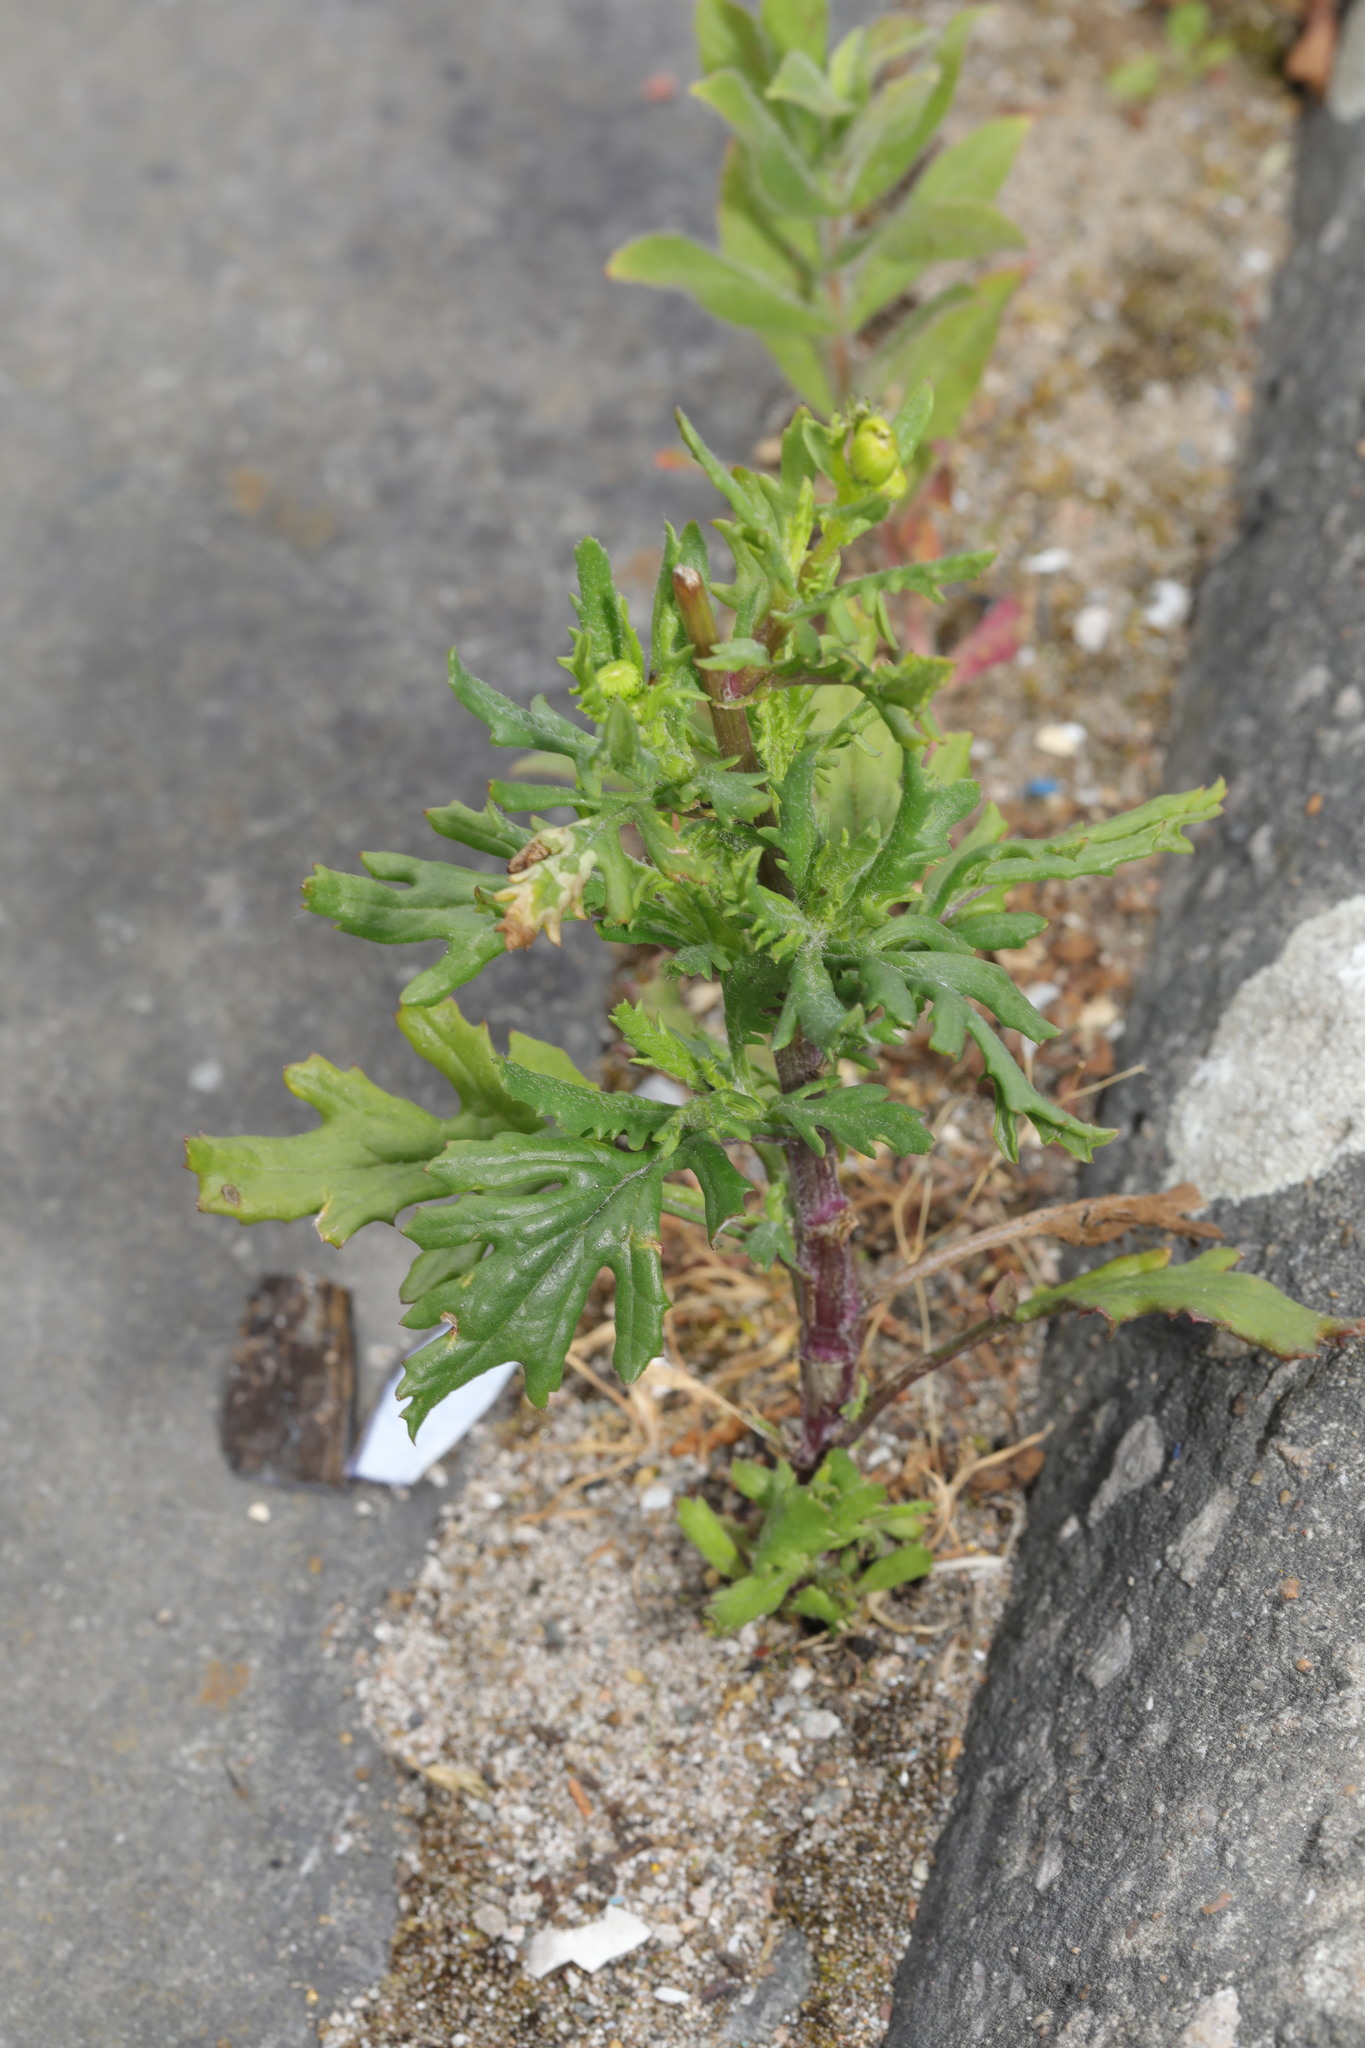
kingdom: Plantae
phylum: Tracheophyta
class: Magnoliopsida
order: Asterales
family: Asteraceae
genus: Senecio
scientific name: Senecio squalidus
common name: Oxford ragwort
